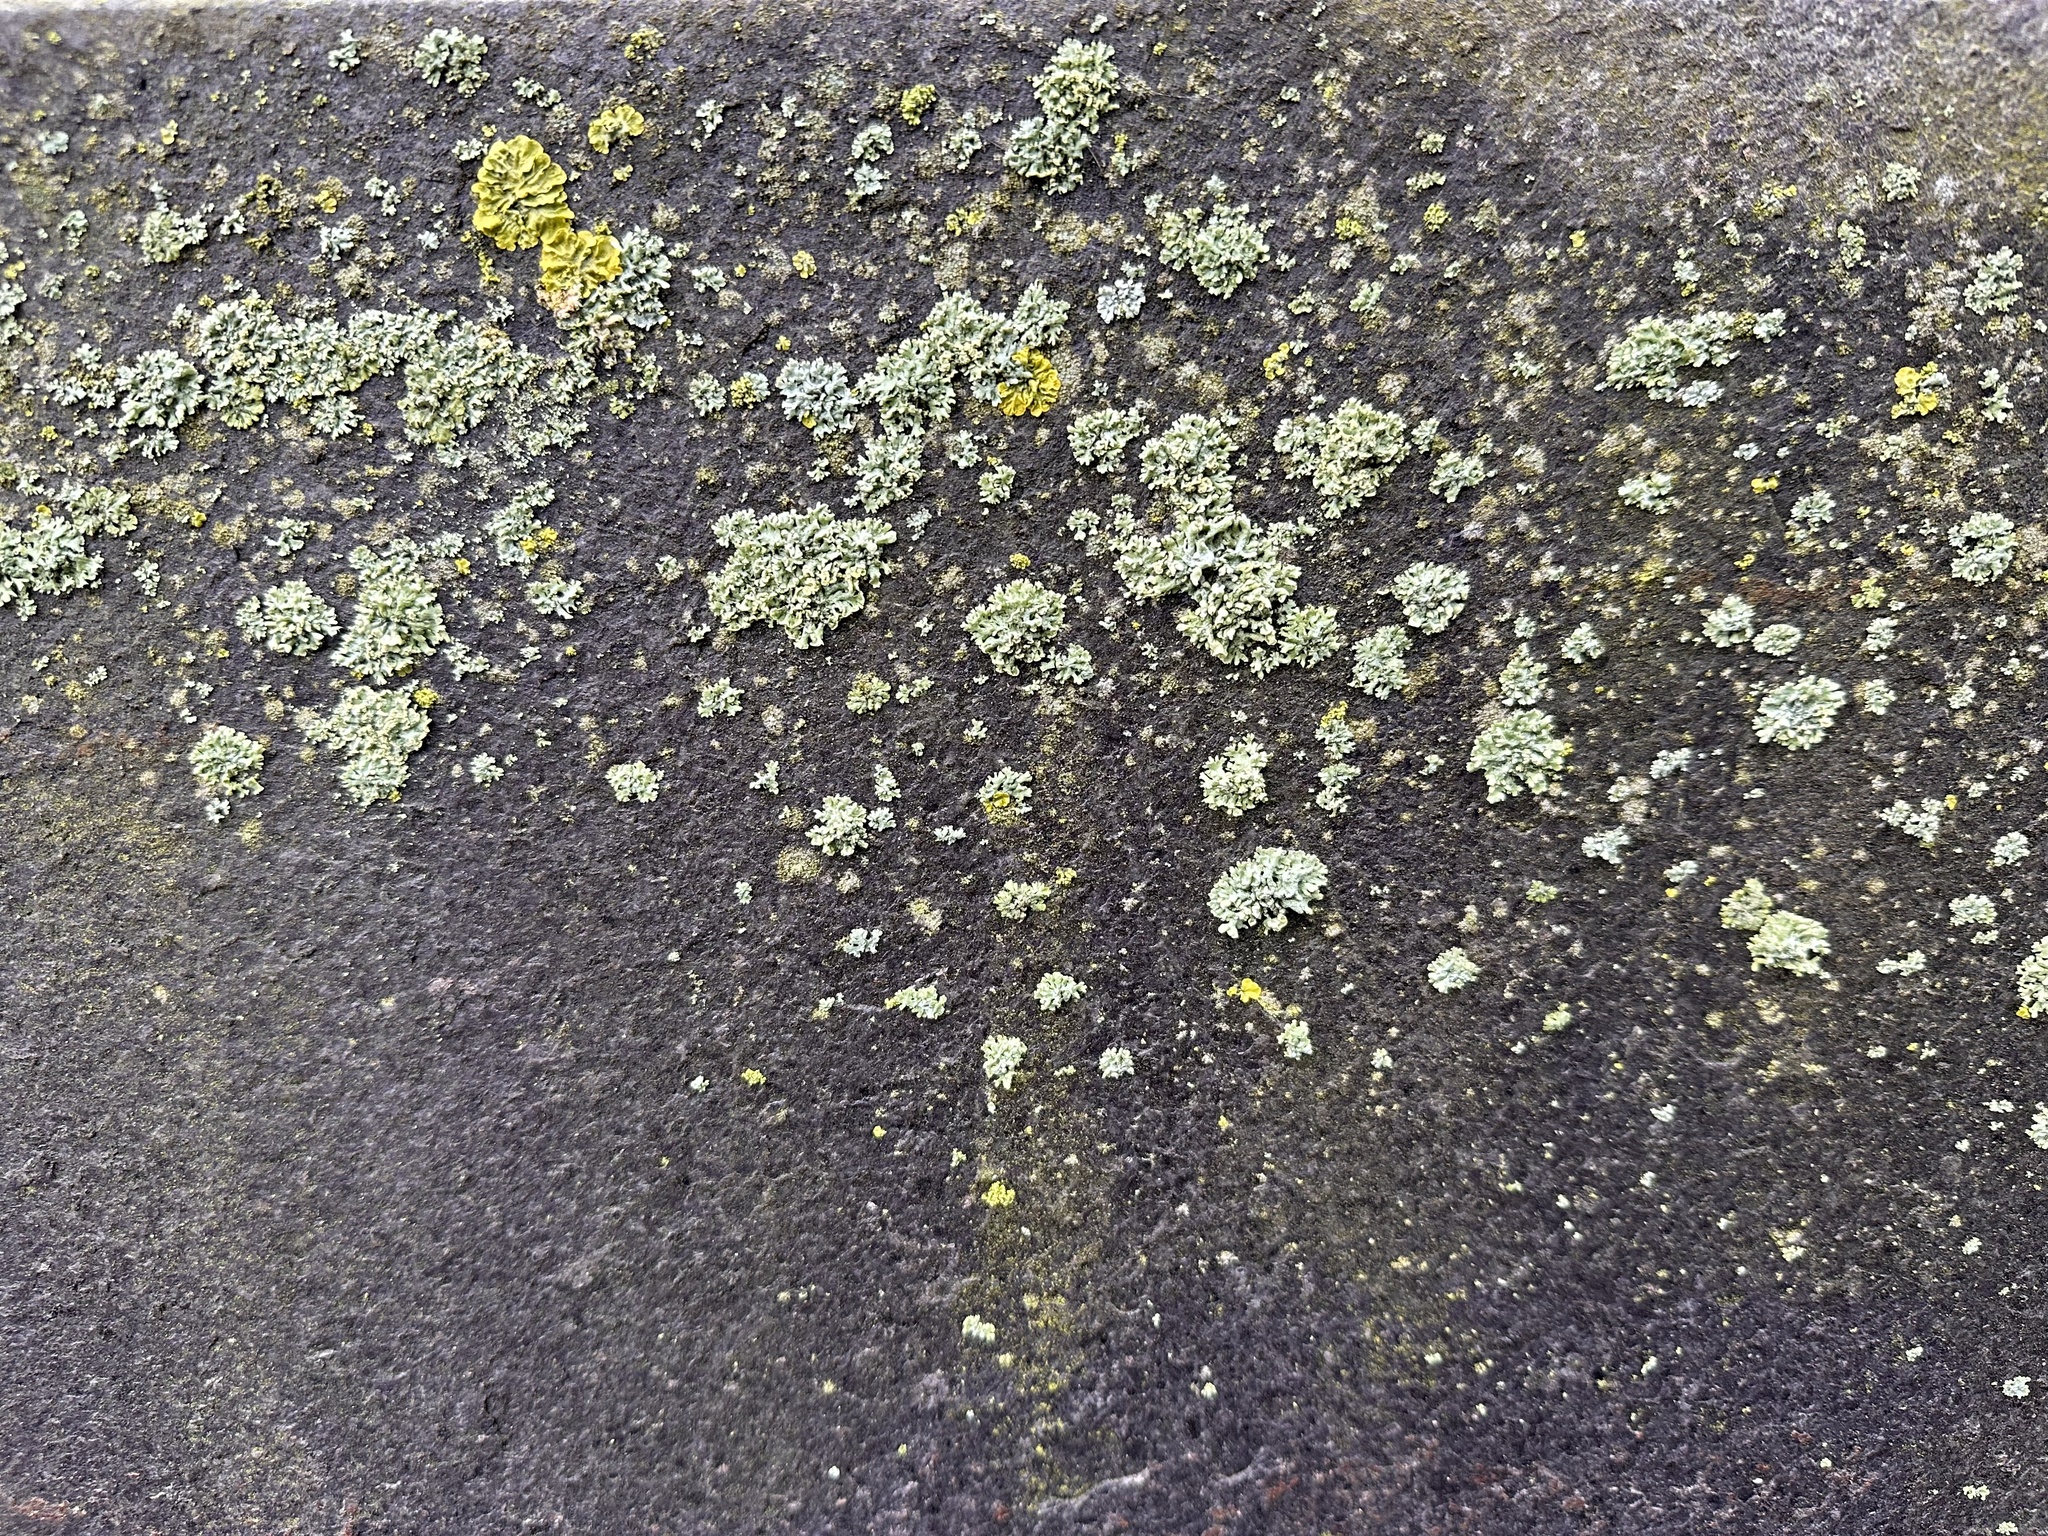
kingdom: Fungi
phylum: Ascomycota
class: Lecanoromycetes
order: Teloschistales
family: Teloschistaceae
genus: Xanthoria
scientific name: Xanthoria parietina
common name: Common orange lichen
